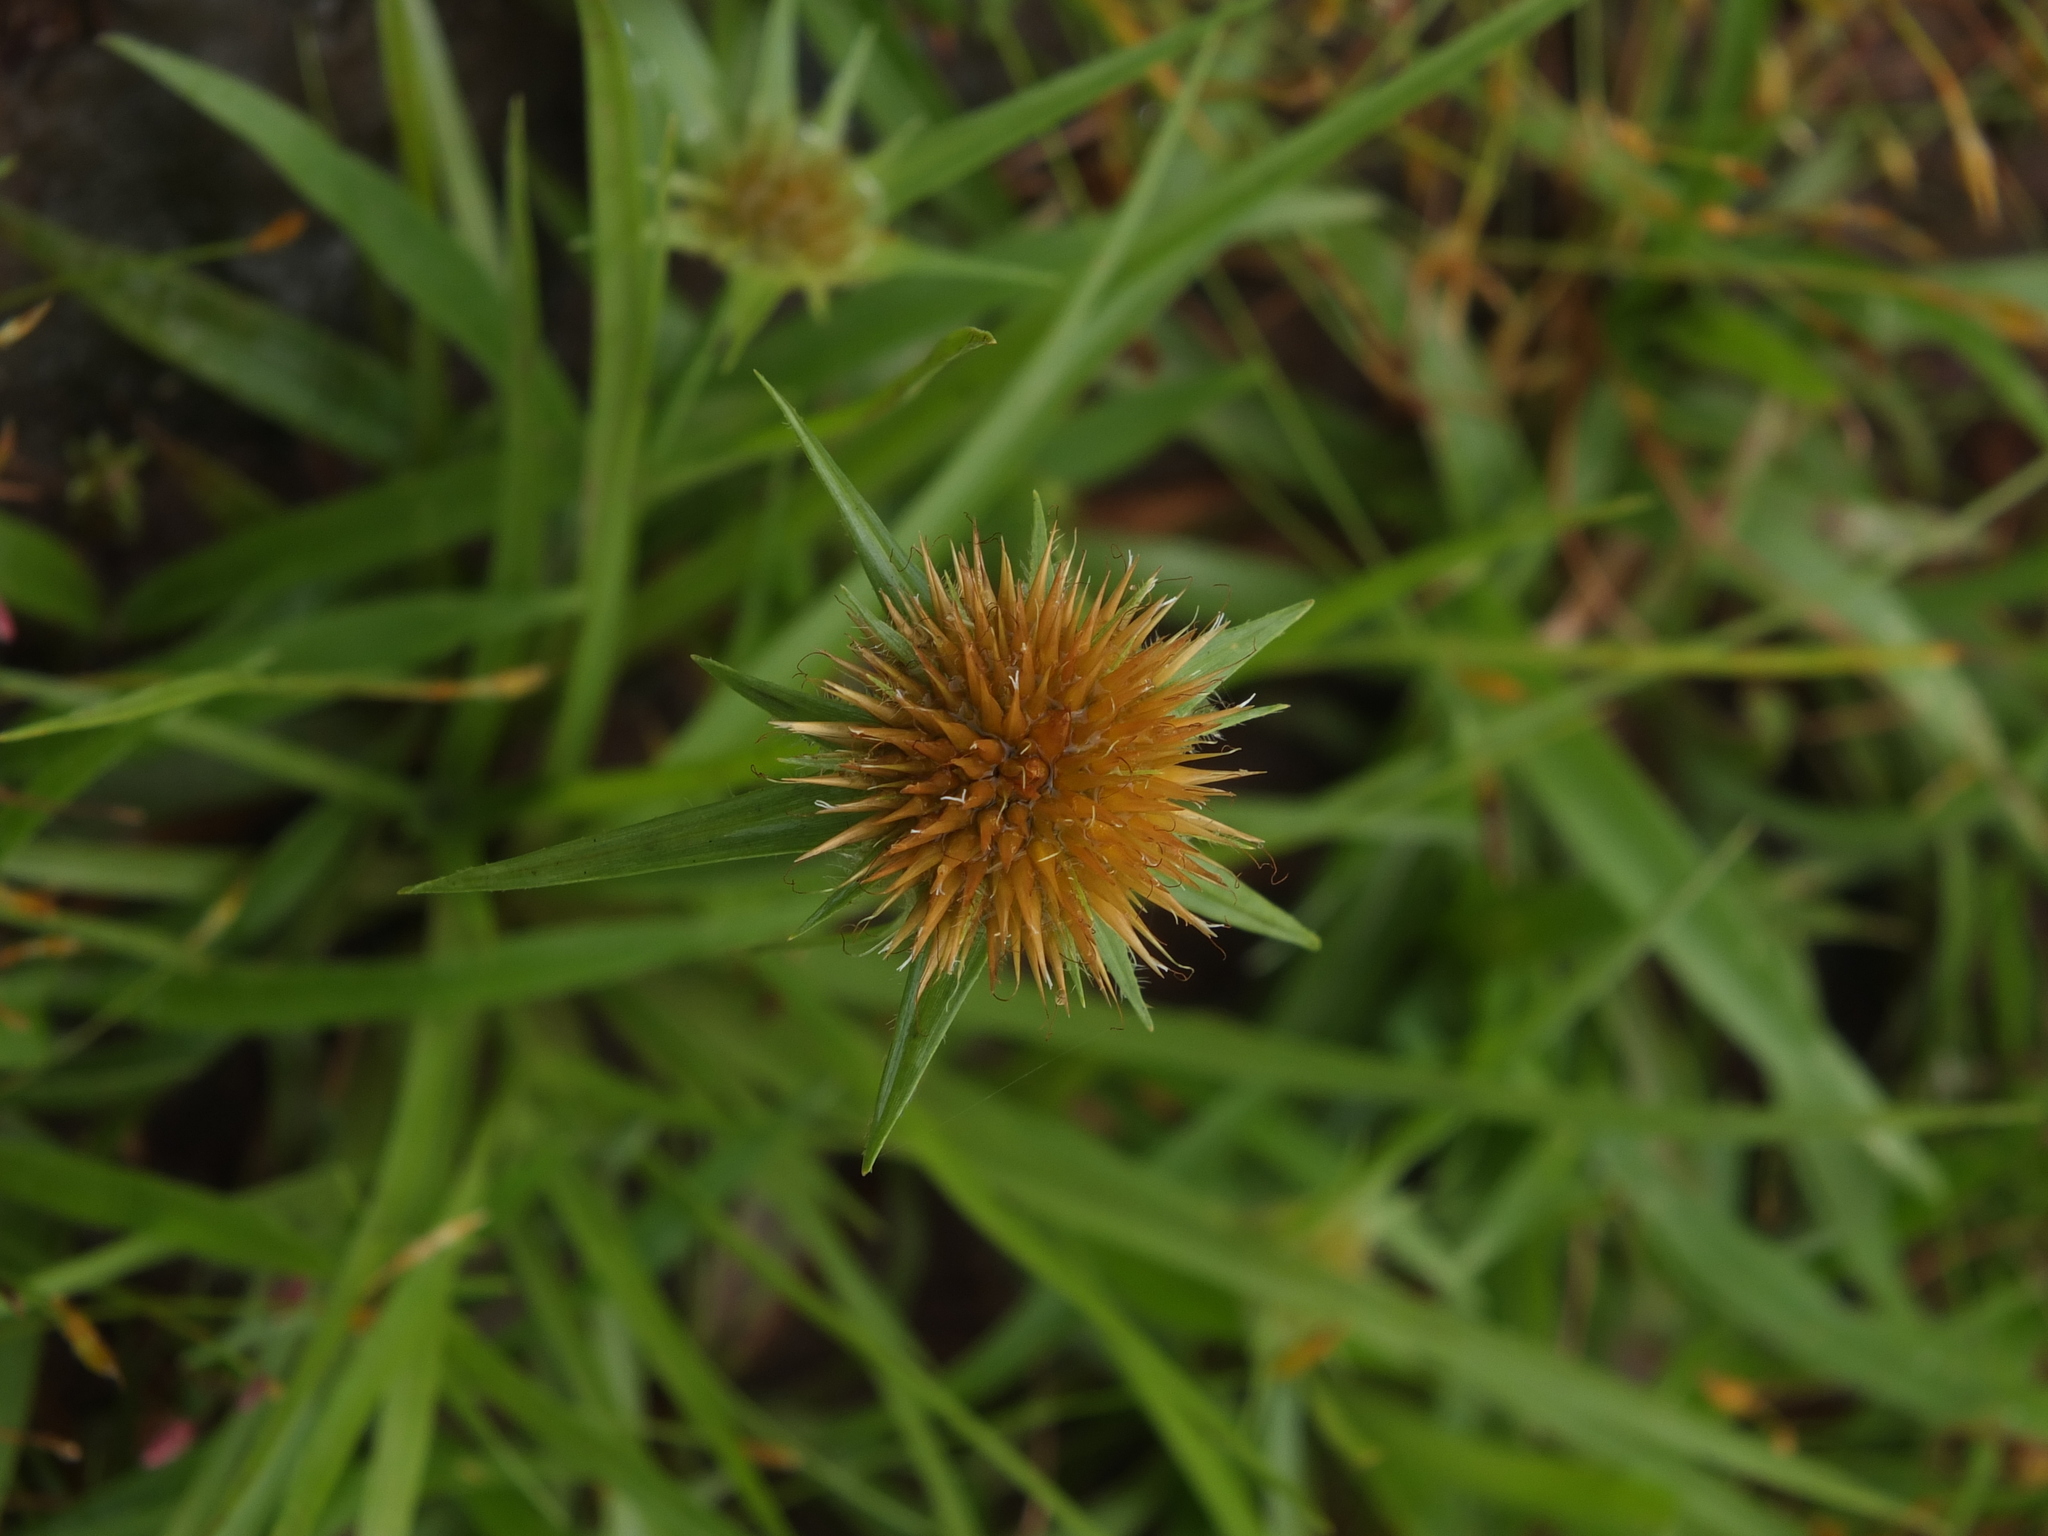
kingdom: Plantae
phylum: Tracheophyta
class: Liliopsida
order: Poales
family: Cyperaceae
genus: Rhynchospora
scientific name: Rhynchospora wightiana
